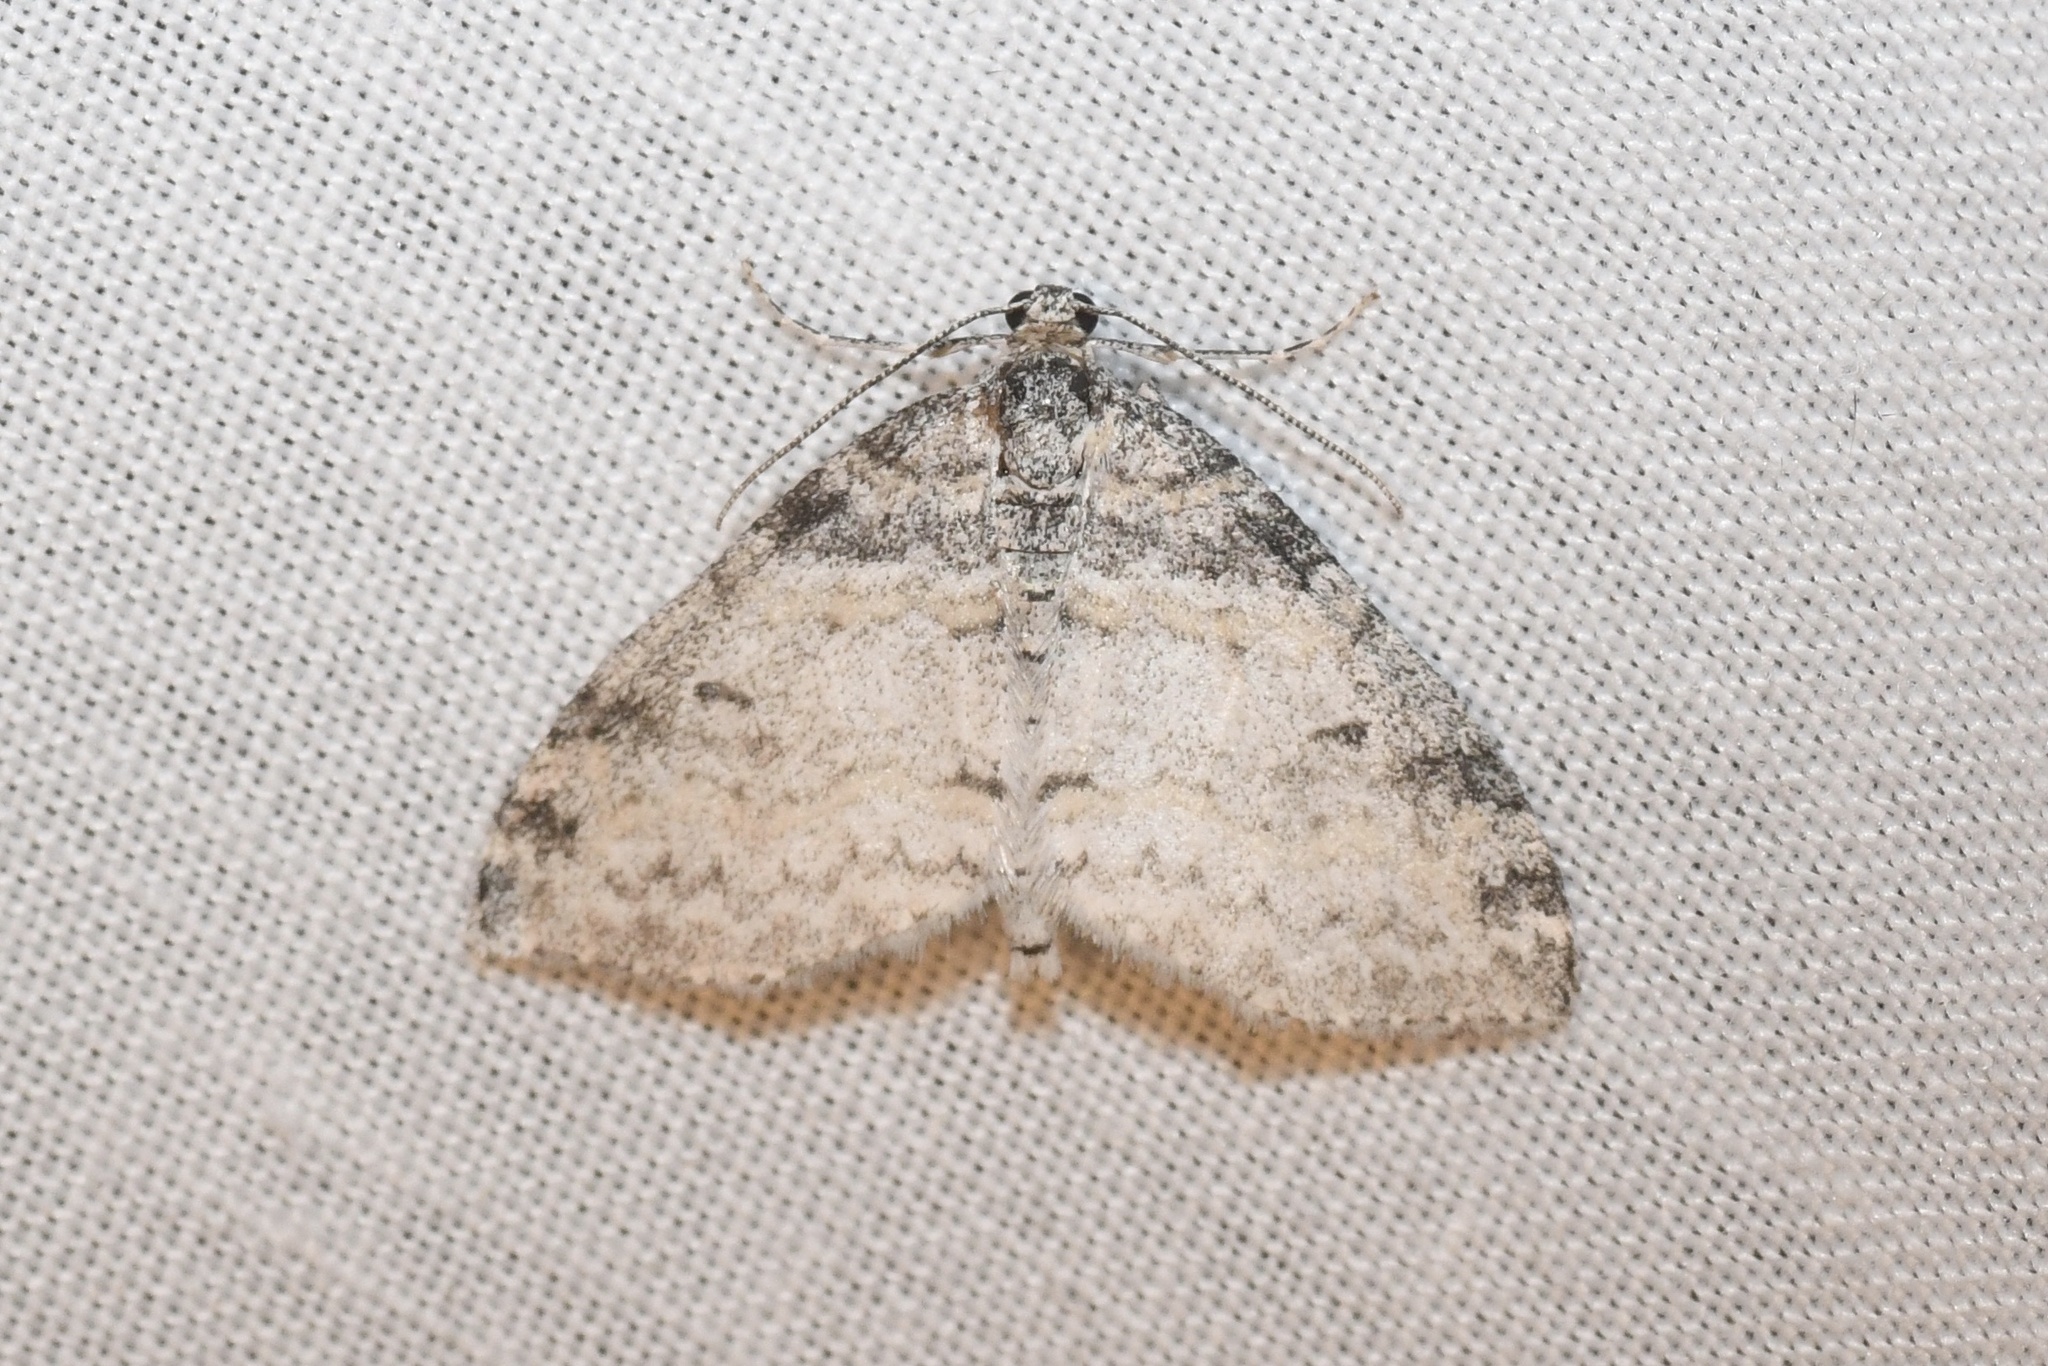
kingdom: Animalia
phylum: Arthropoda
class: Insecta
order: Lepidoptera
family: Geometridae
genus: Lobophora
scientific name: Lobophora nivigerata
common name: Powdered bigwing
